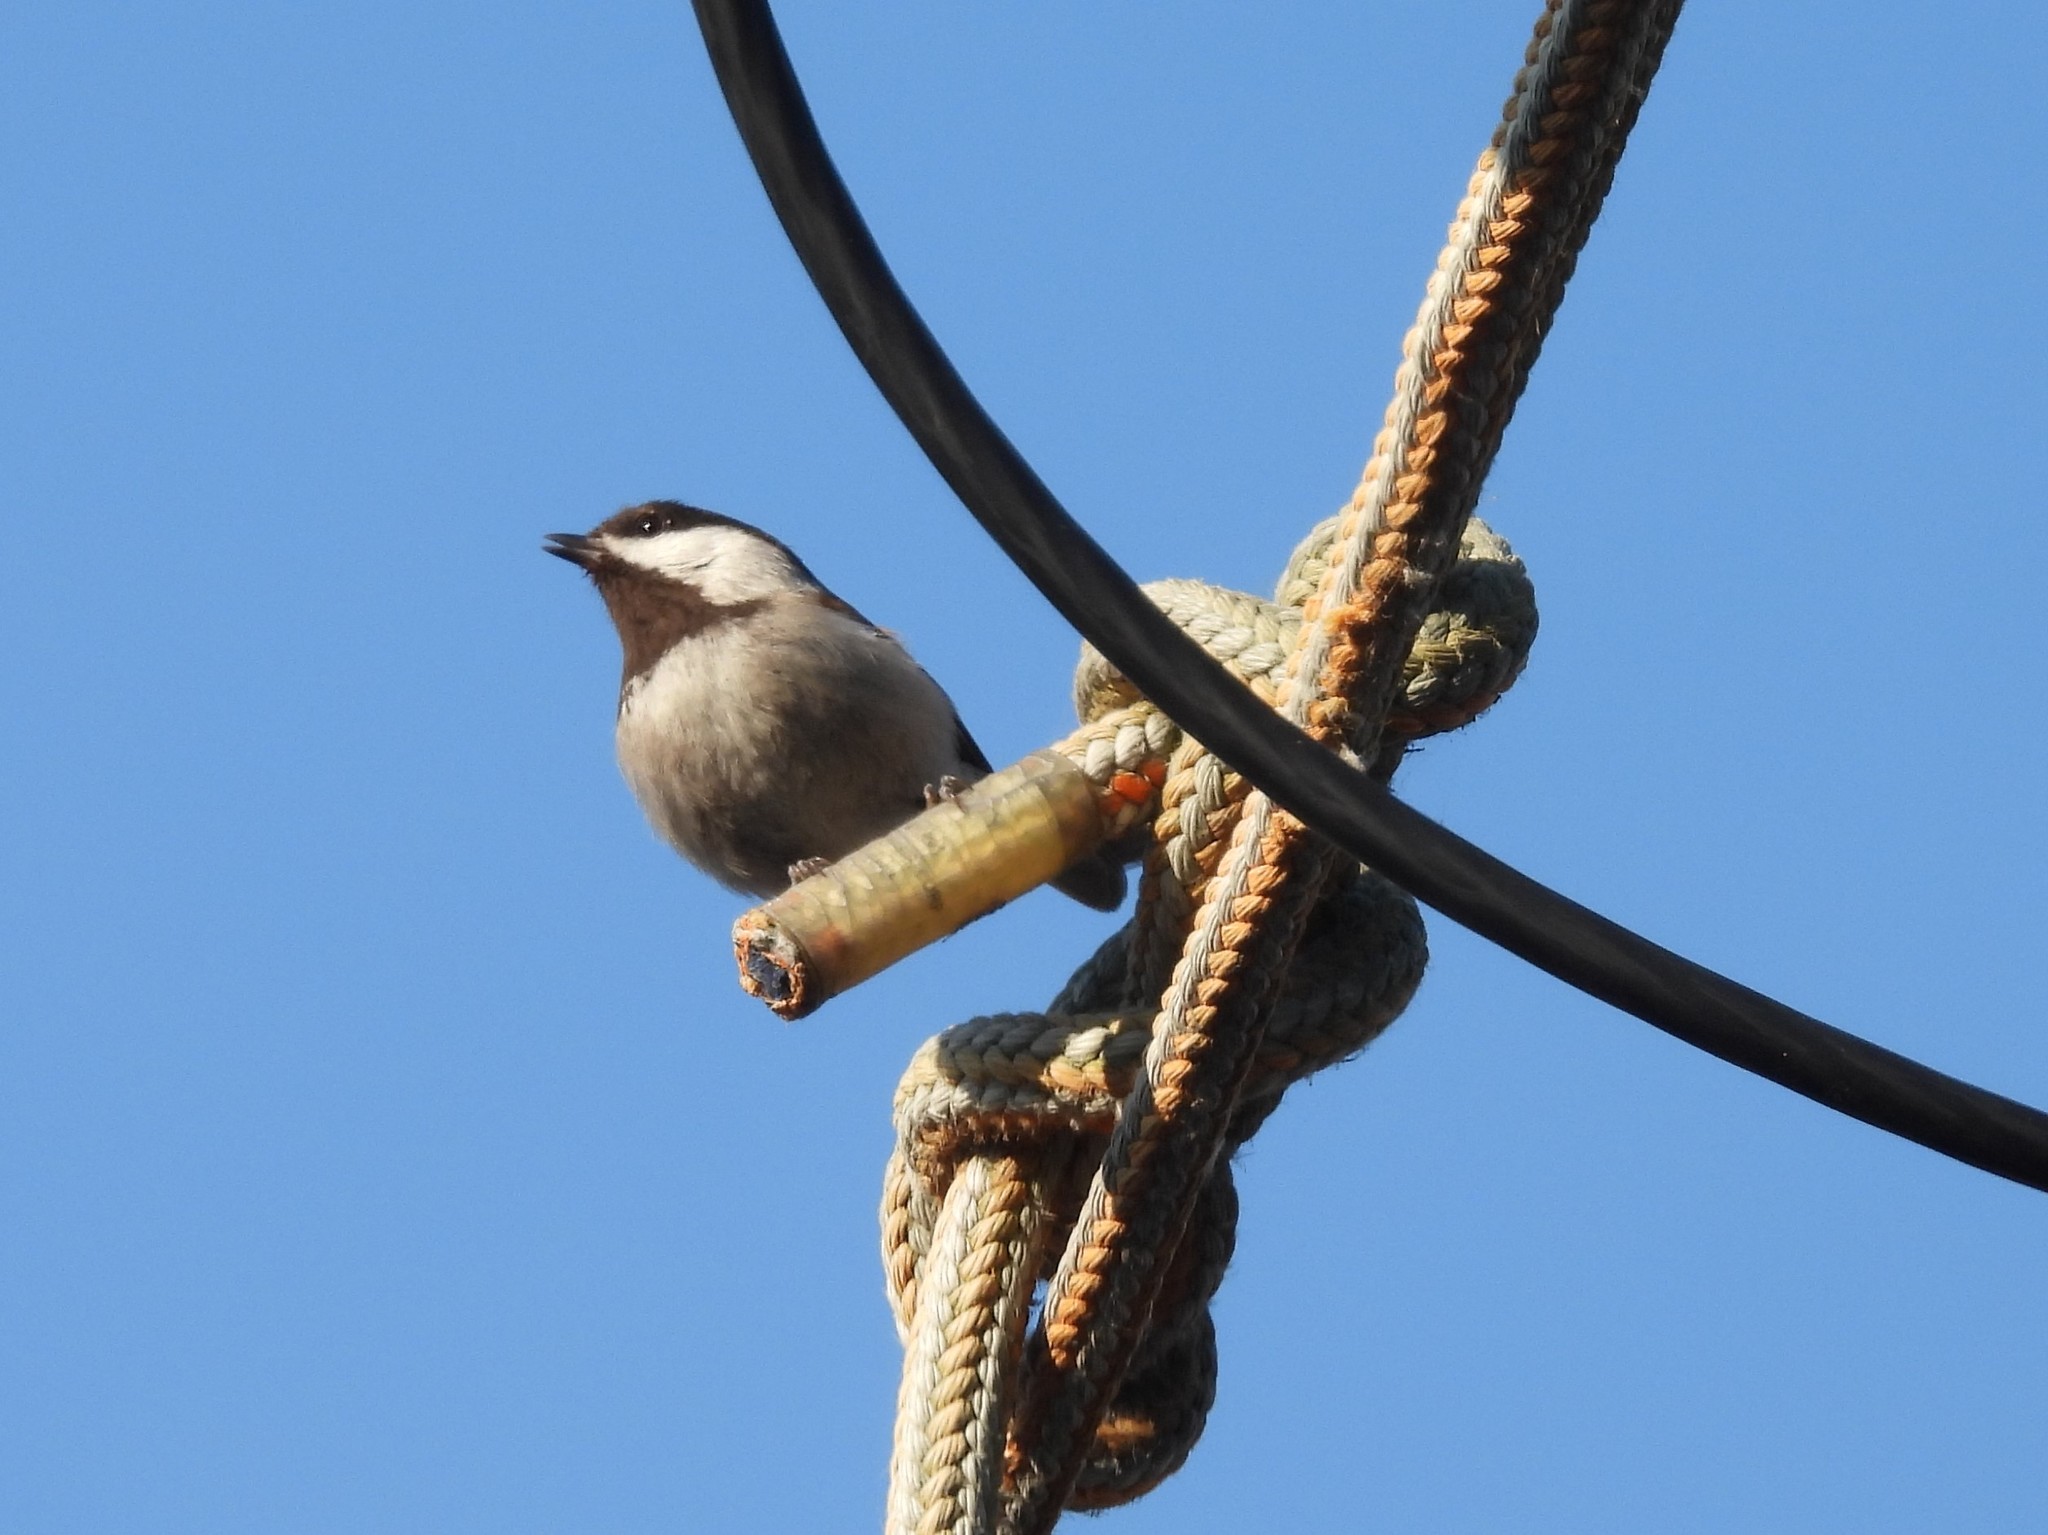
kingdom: Animalia
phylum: Chordata
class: Aves
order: Passeriformes
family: Paridae
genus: Poecile
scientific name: Poecile rufescens
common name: Chestnut-backed chickadee
